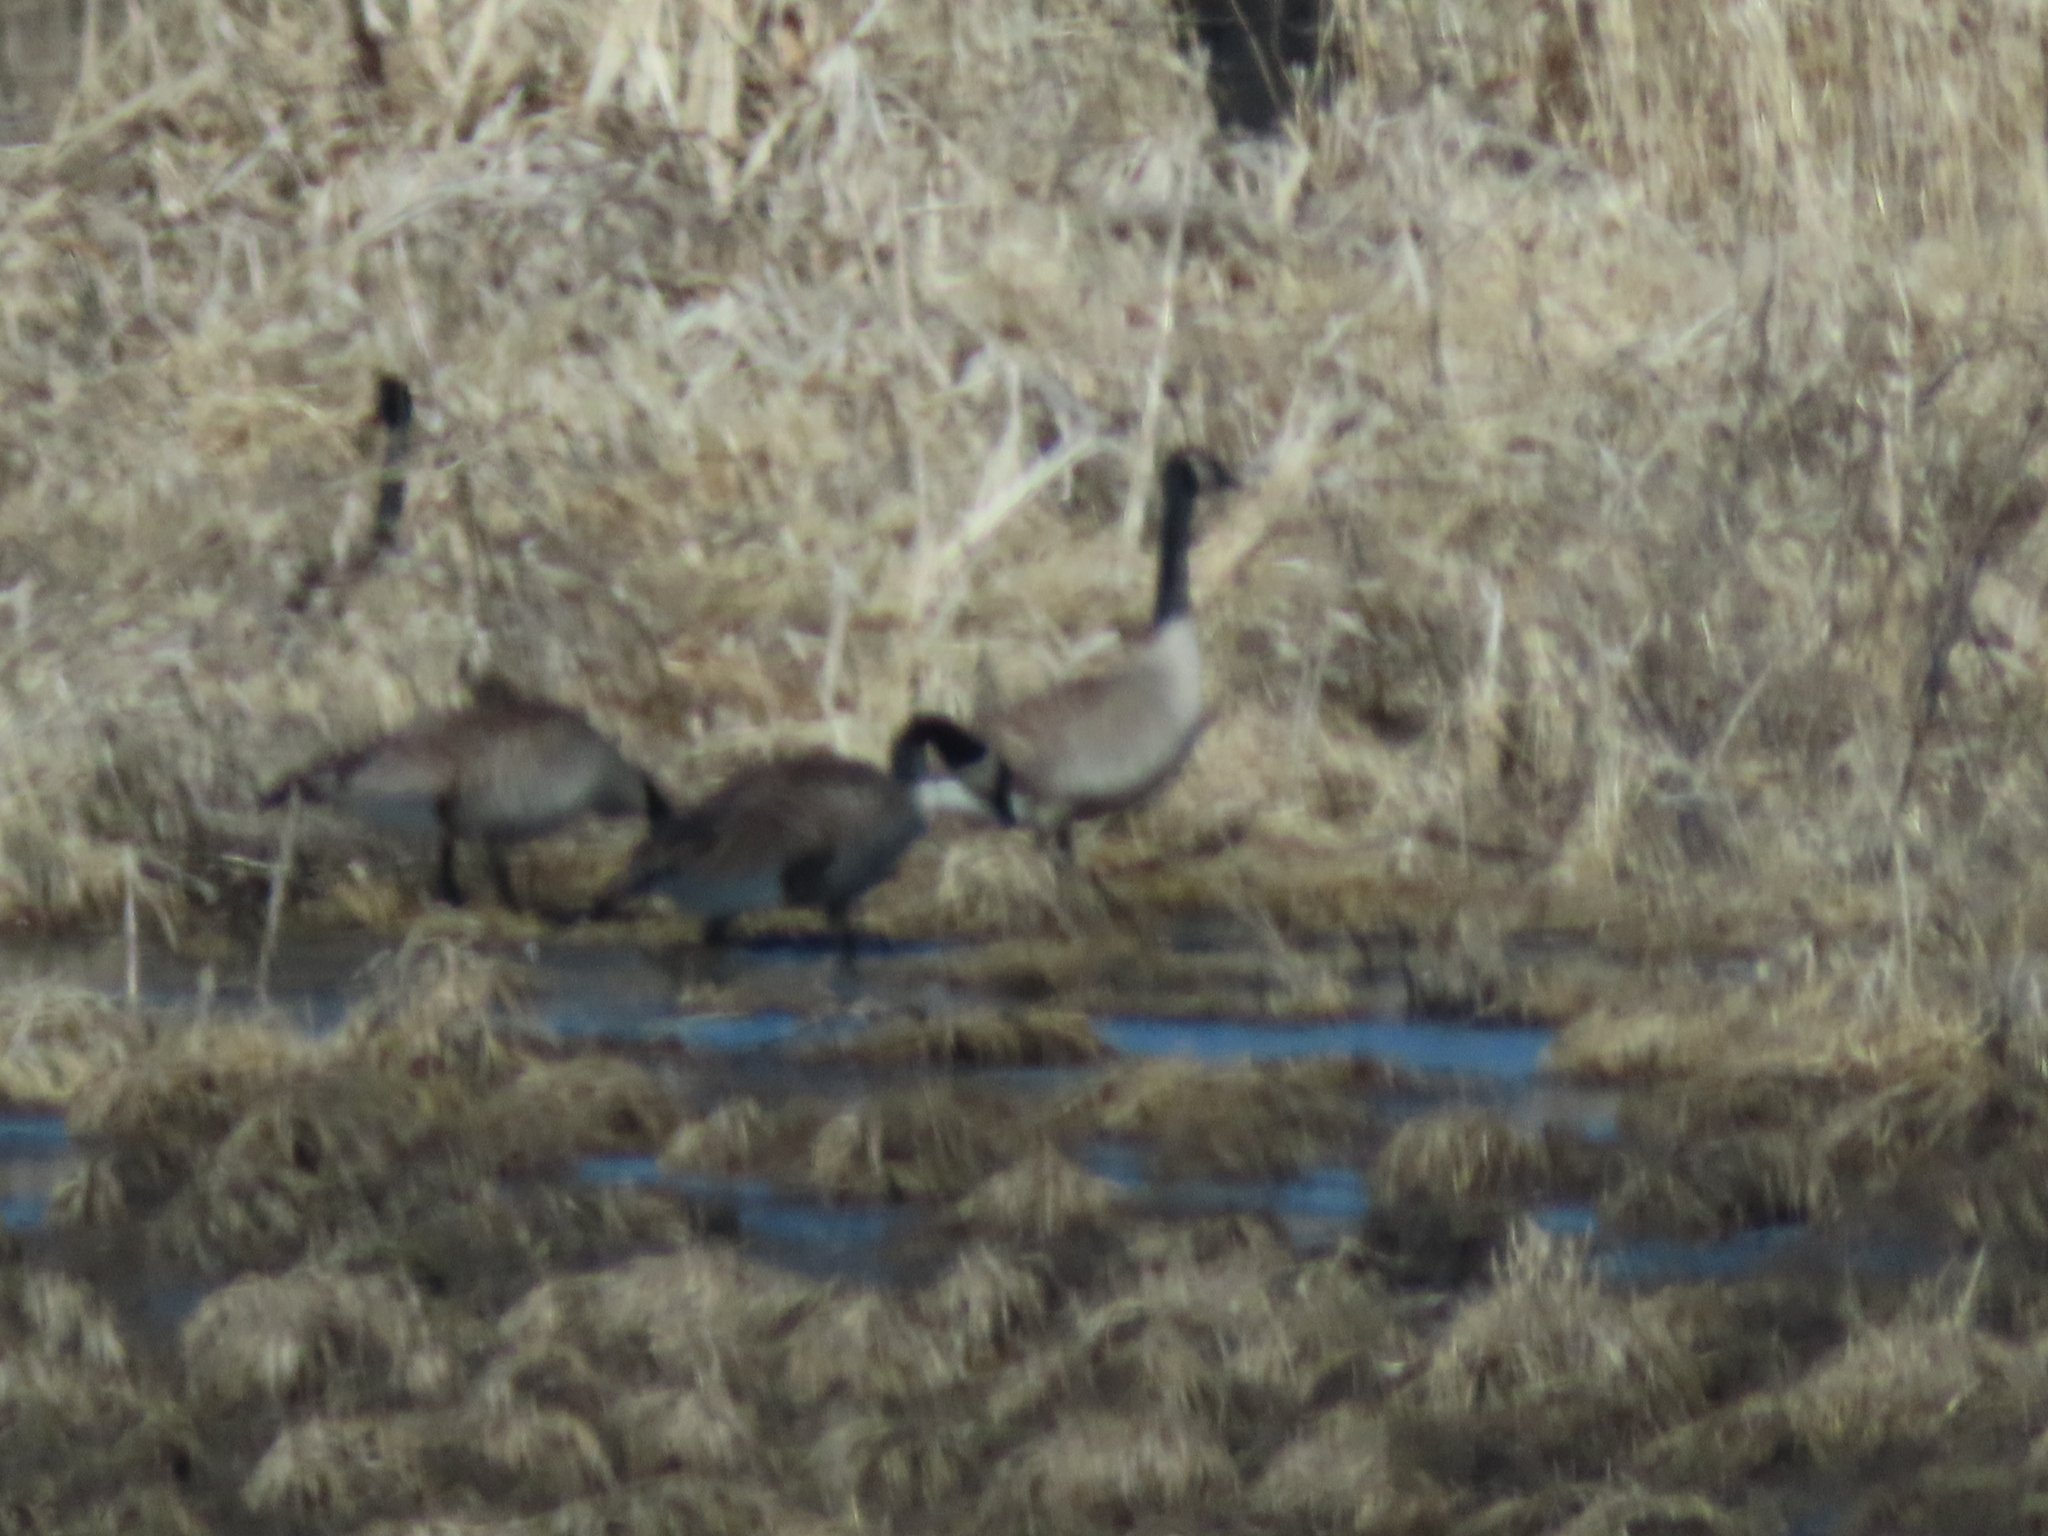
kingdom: Animalia
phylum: Chordata
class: Aves
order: Anseriformes
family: Anatidae
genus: Branta
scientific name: Branta canadensis
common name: Canada goose
